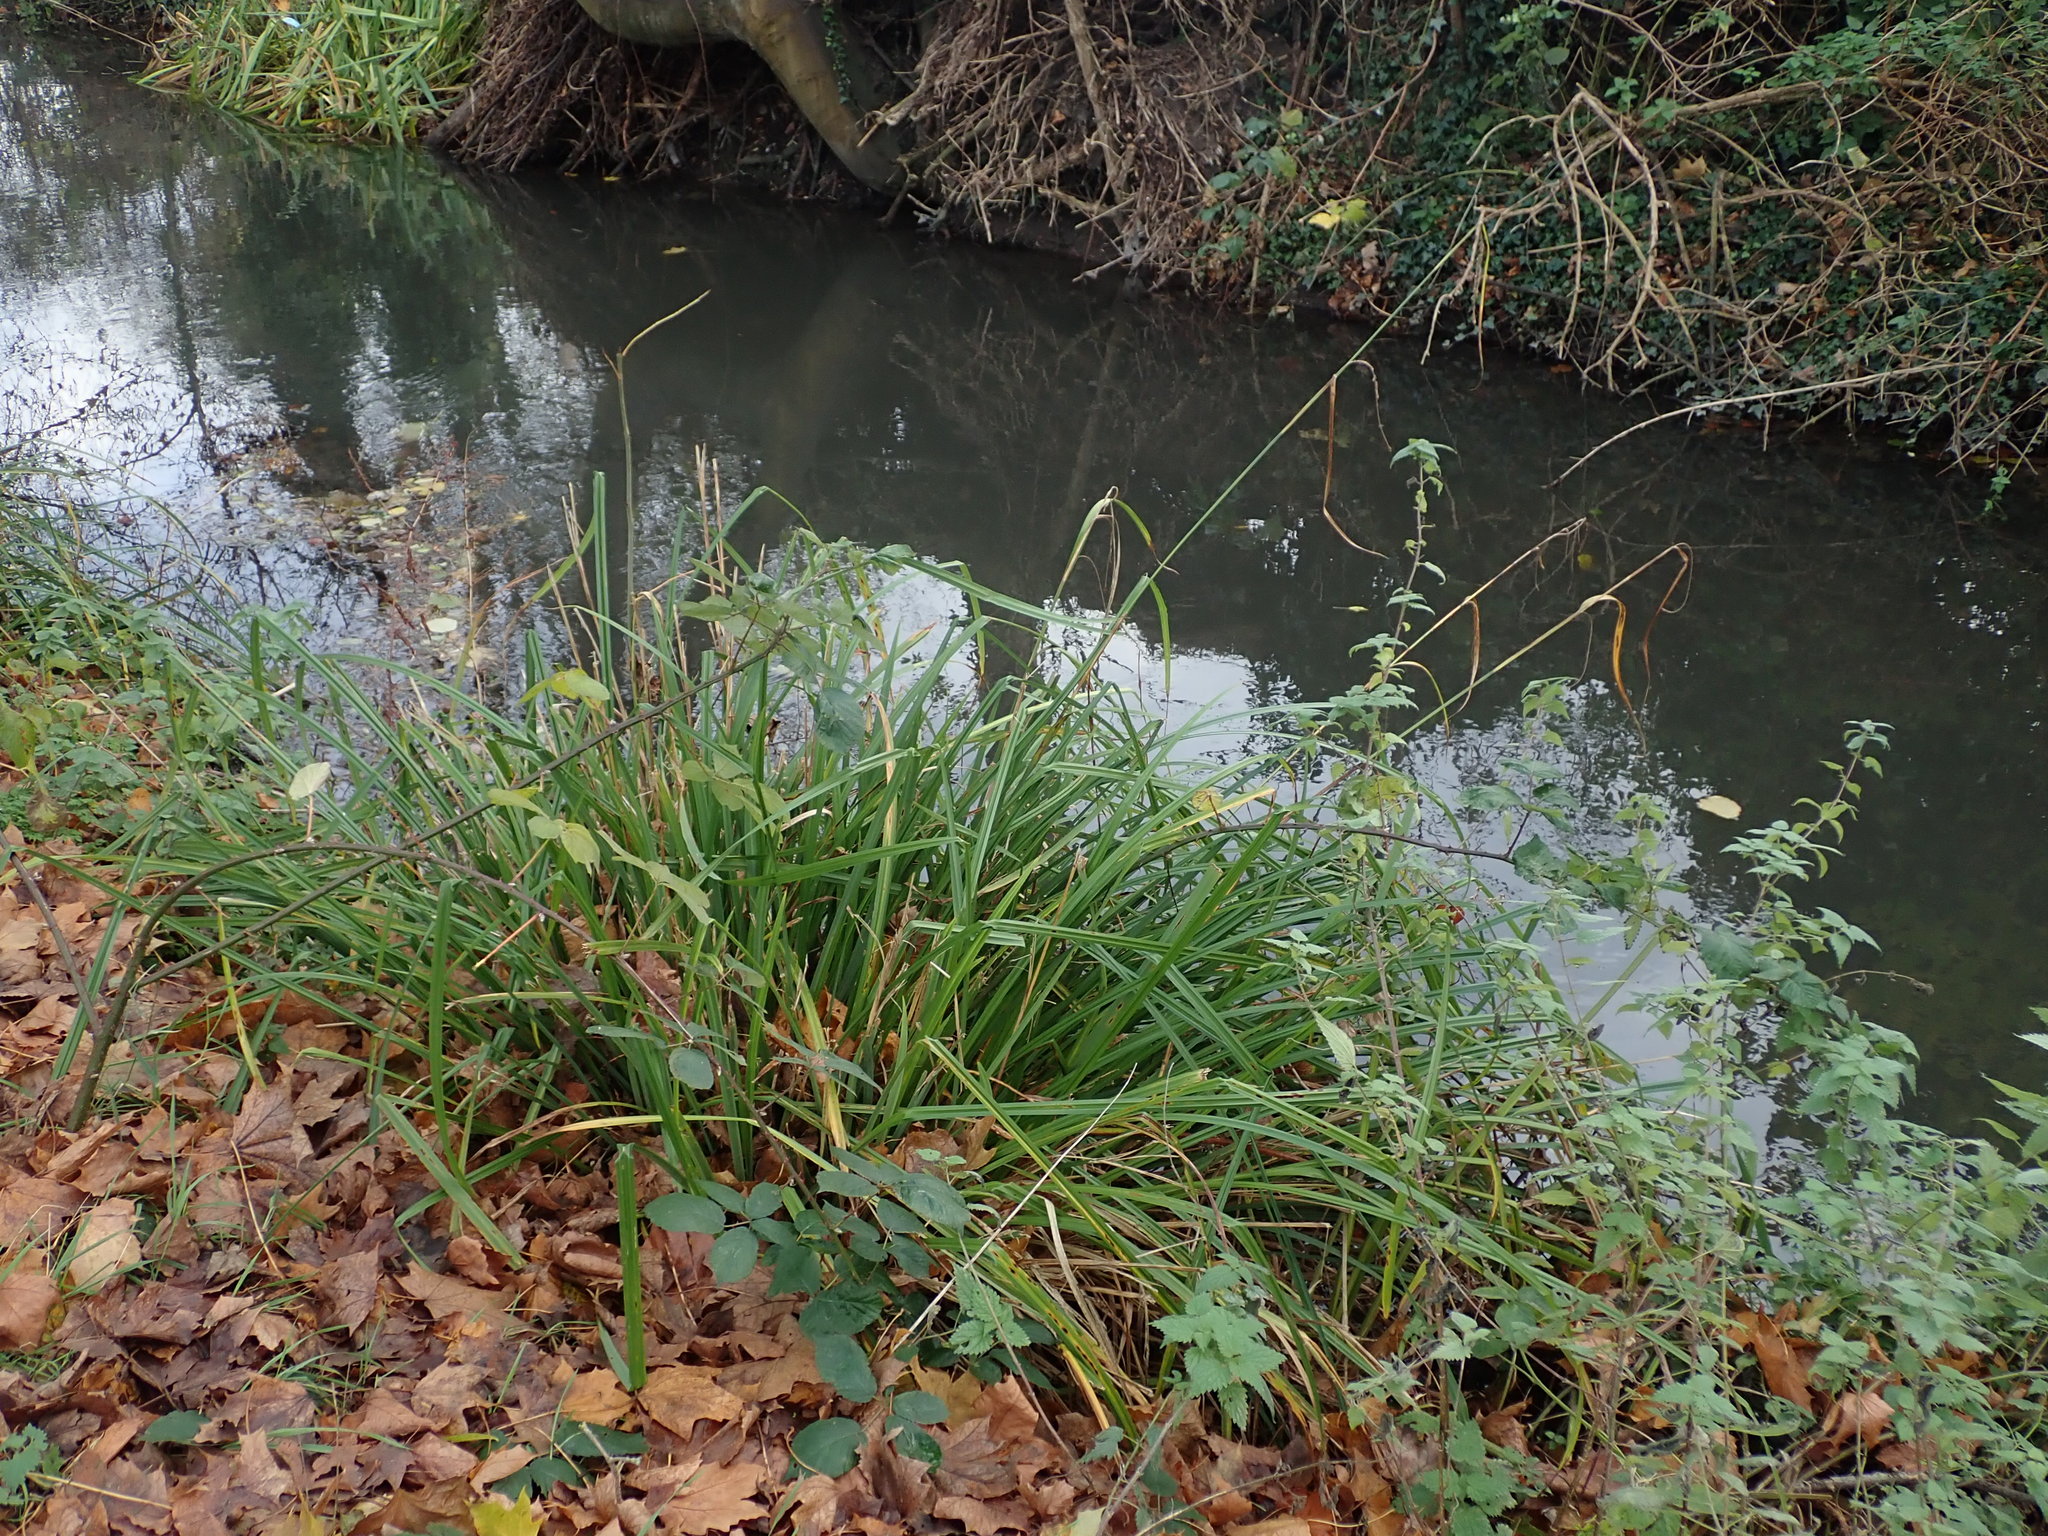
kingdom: Plantae
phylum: Tracheophyta
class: Liliopsida
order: Poales
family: Cyperaceae
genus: Carex
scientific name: Carex pendula
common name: Pendulous sedge
